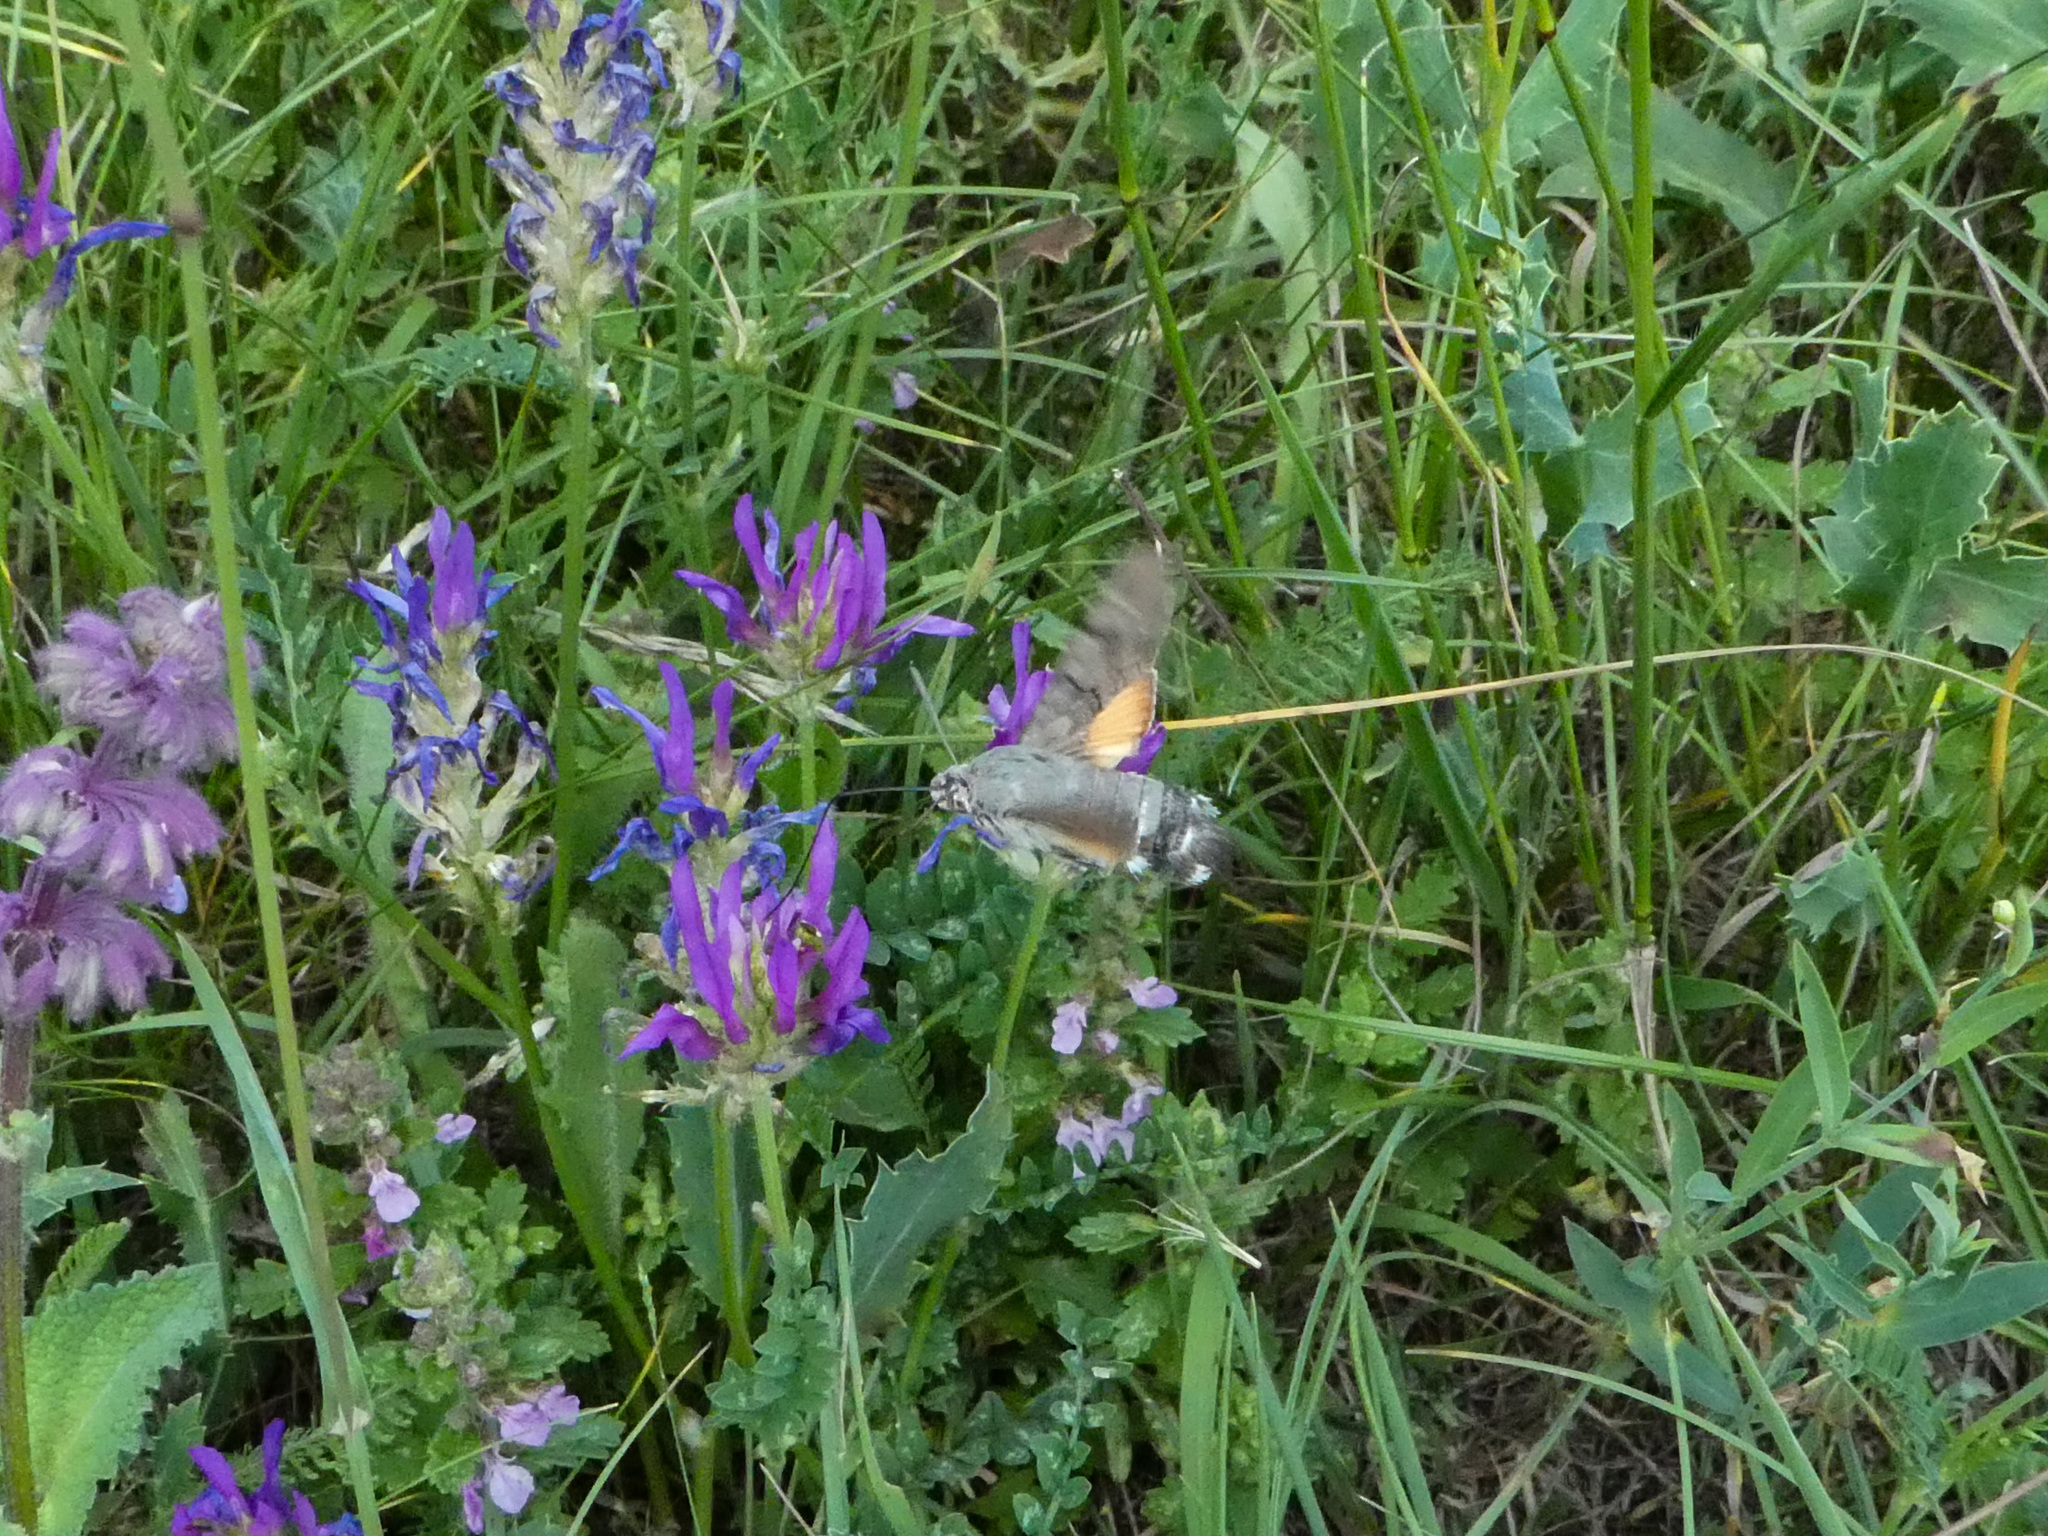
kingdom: Animalia
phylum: Arthropoda
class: Insecta
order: Lepidoptera
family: Sphingidae
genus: Macroglossum
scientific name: Macroglossum stellatarum
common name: Humming-bird hawk-moth
